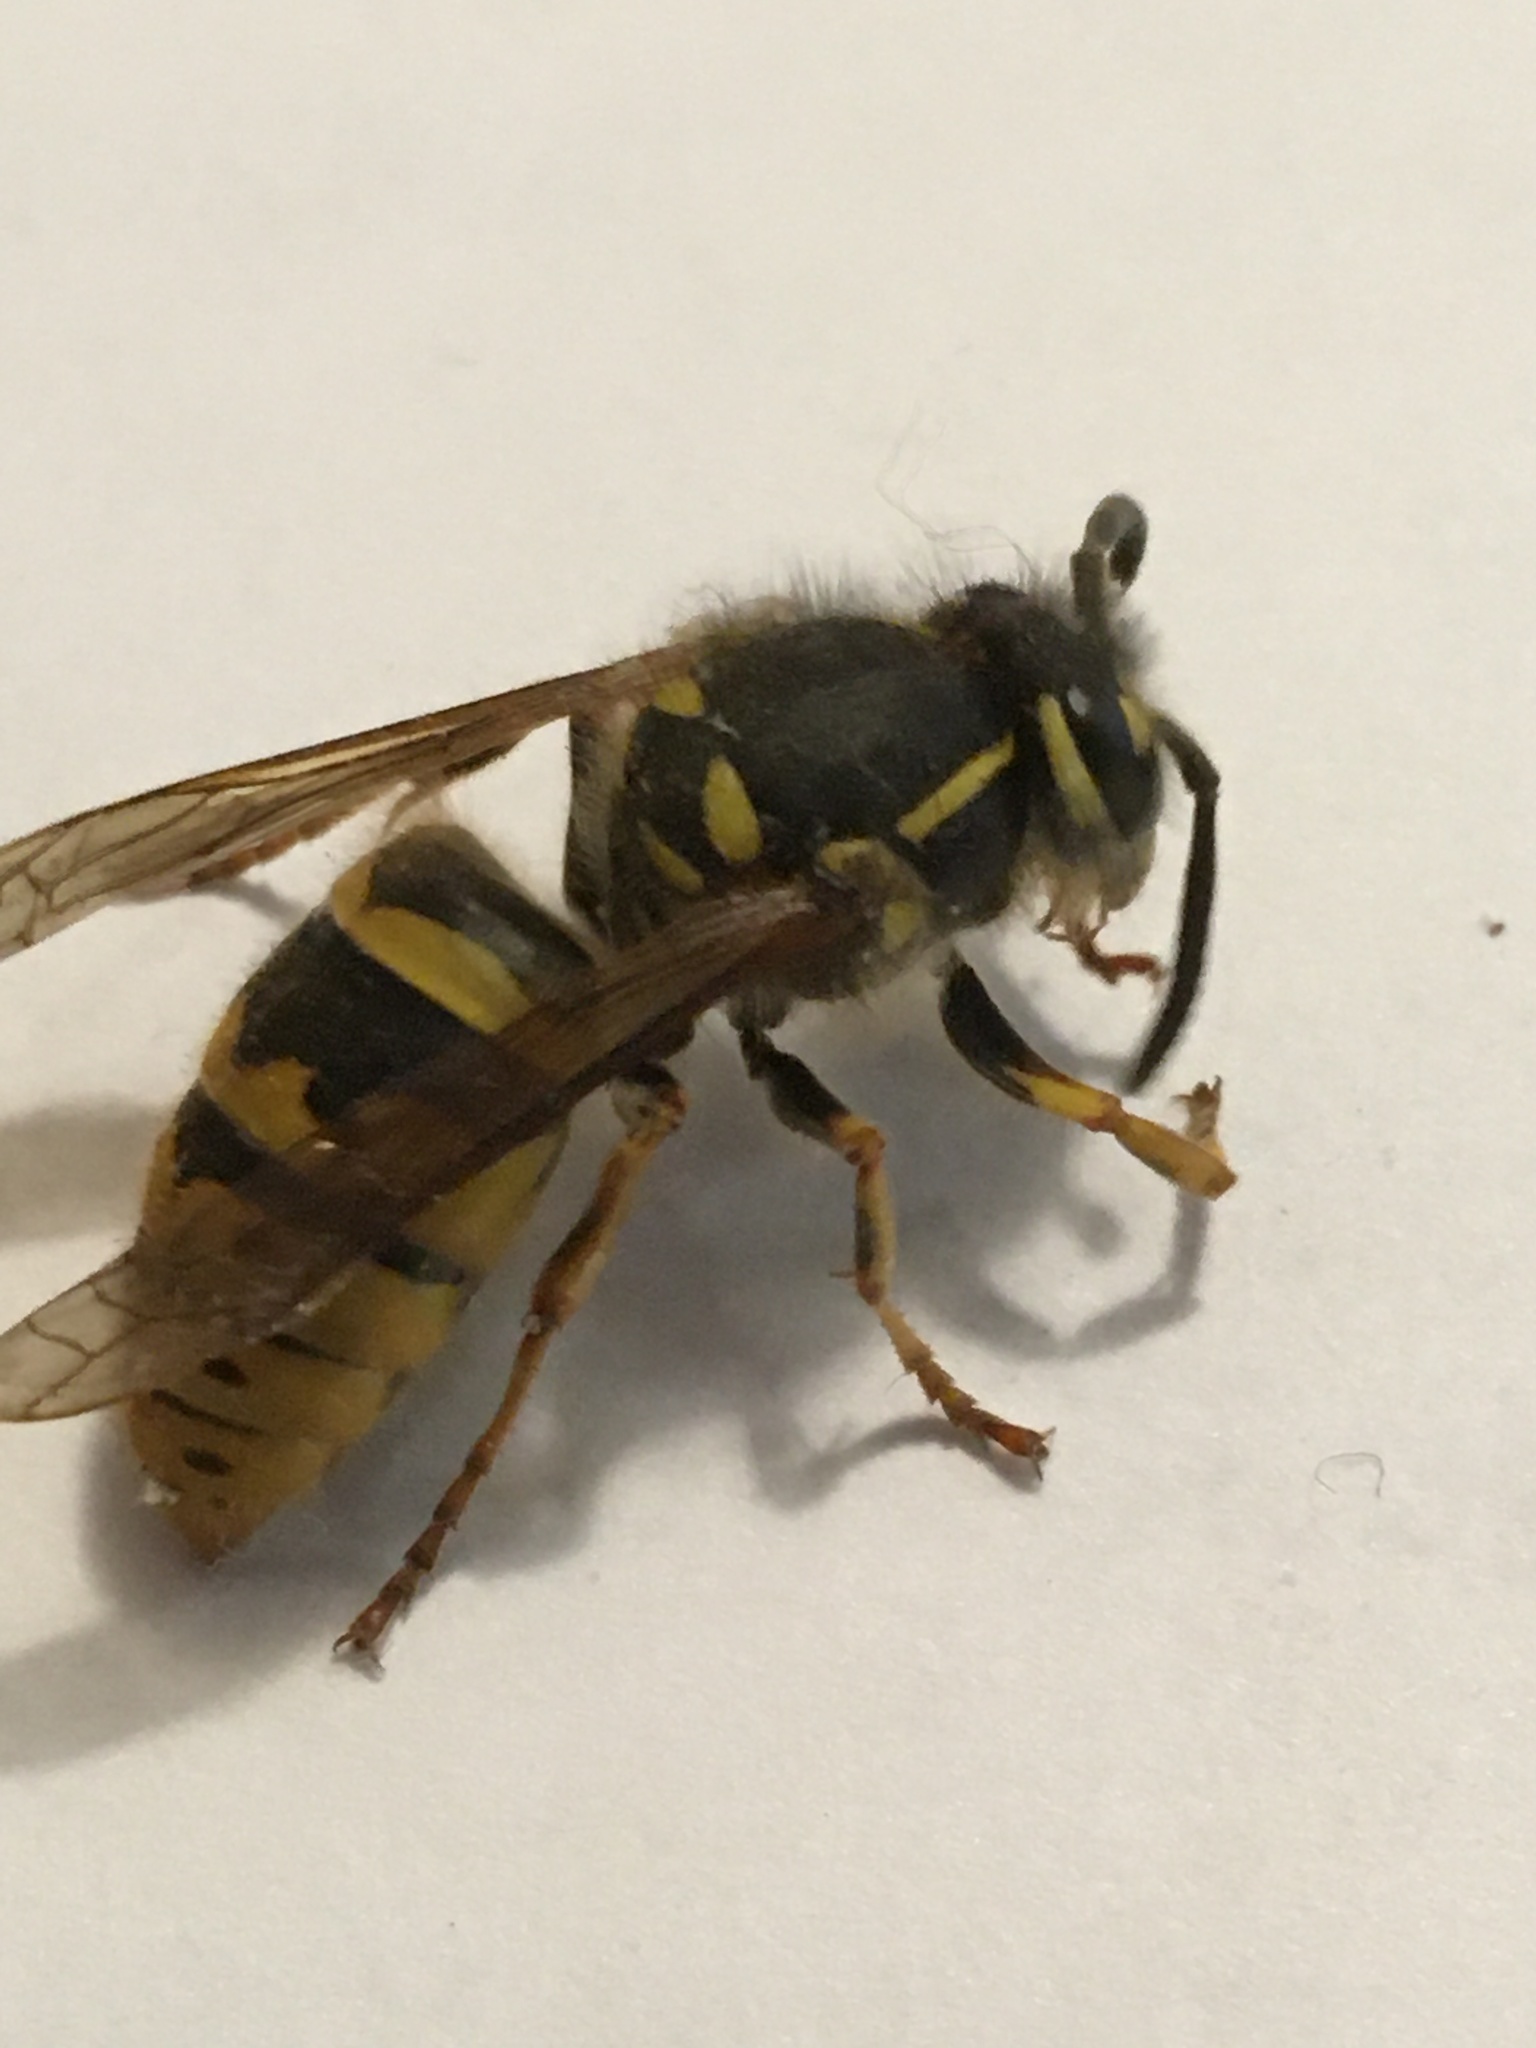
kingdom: Animalia
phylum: Arthropoda
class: Insecta
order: Hymenoptera
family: Vespidae
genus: Vespula
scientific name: Vespula vulgaris
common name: Common wasp
